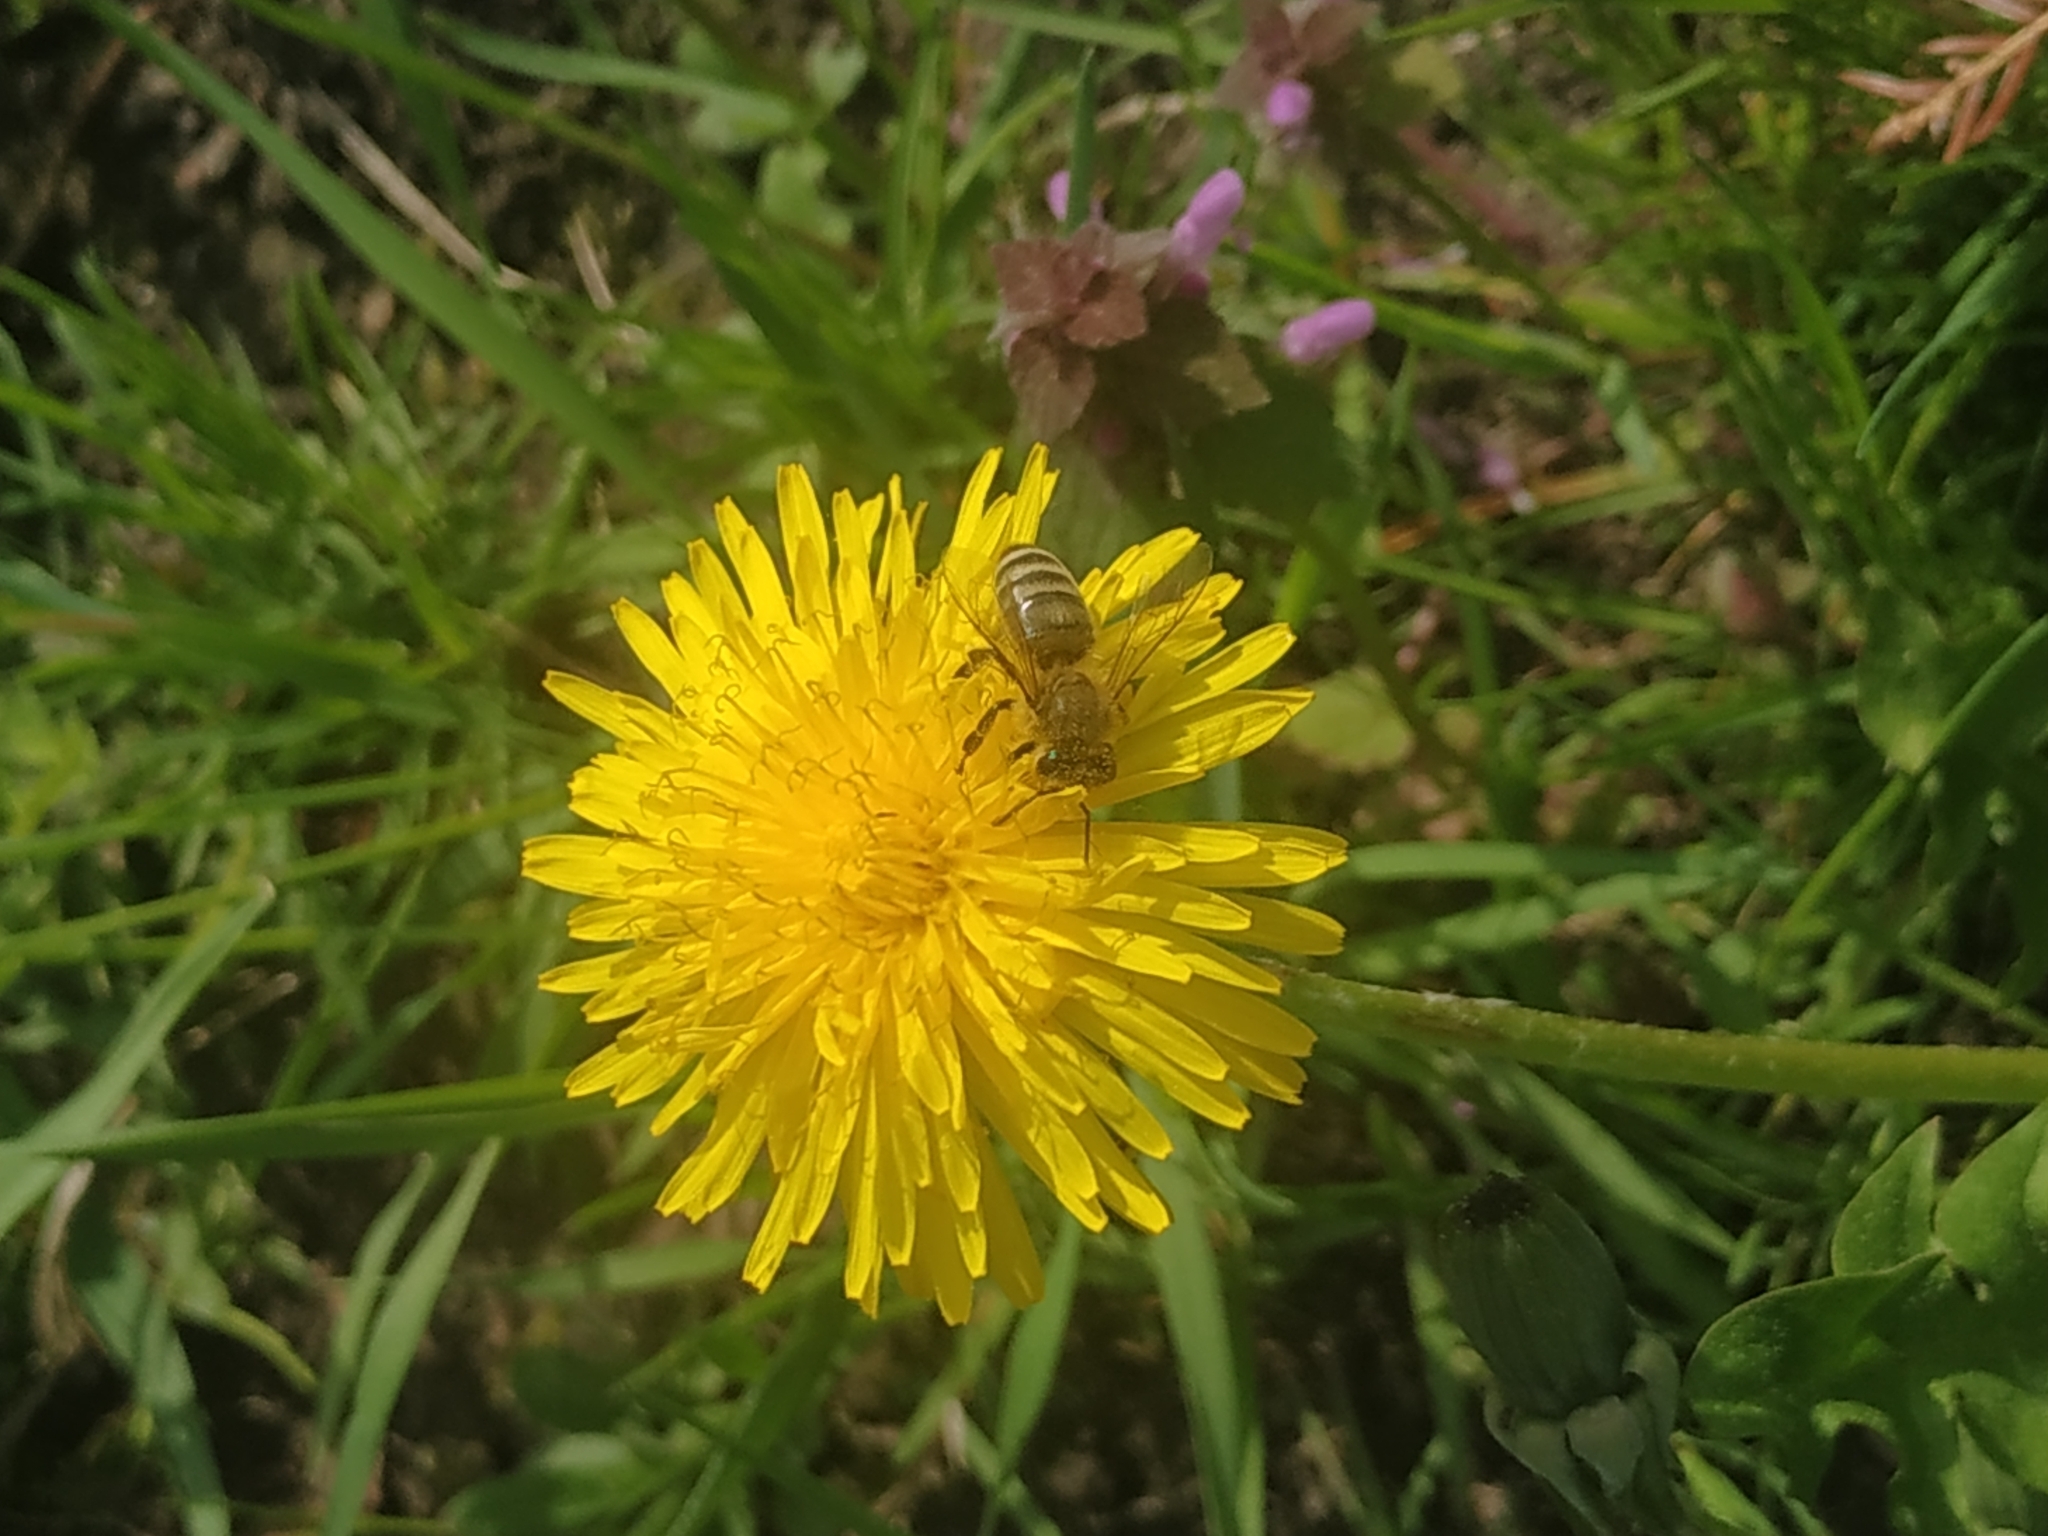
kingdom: Plantae
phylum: Tracheophyta
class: Magnoliopsida
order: Asterales
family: Asteraceae
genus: Taraxacum
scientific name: Taraxacum officinale
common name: Common dandelion
